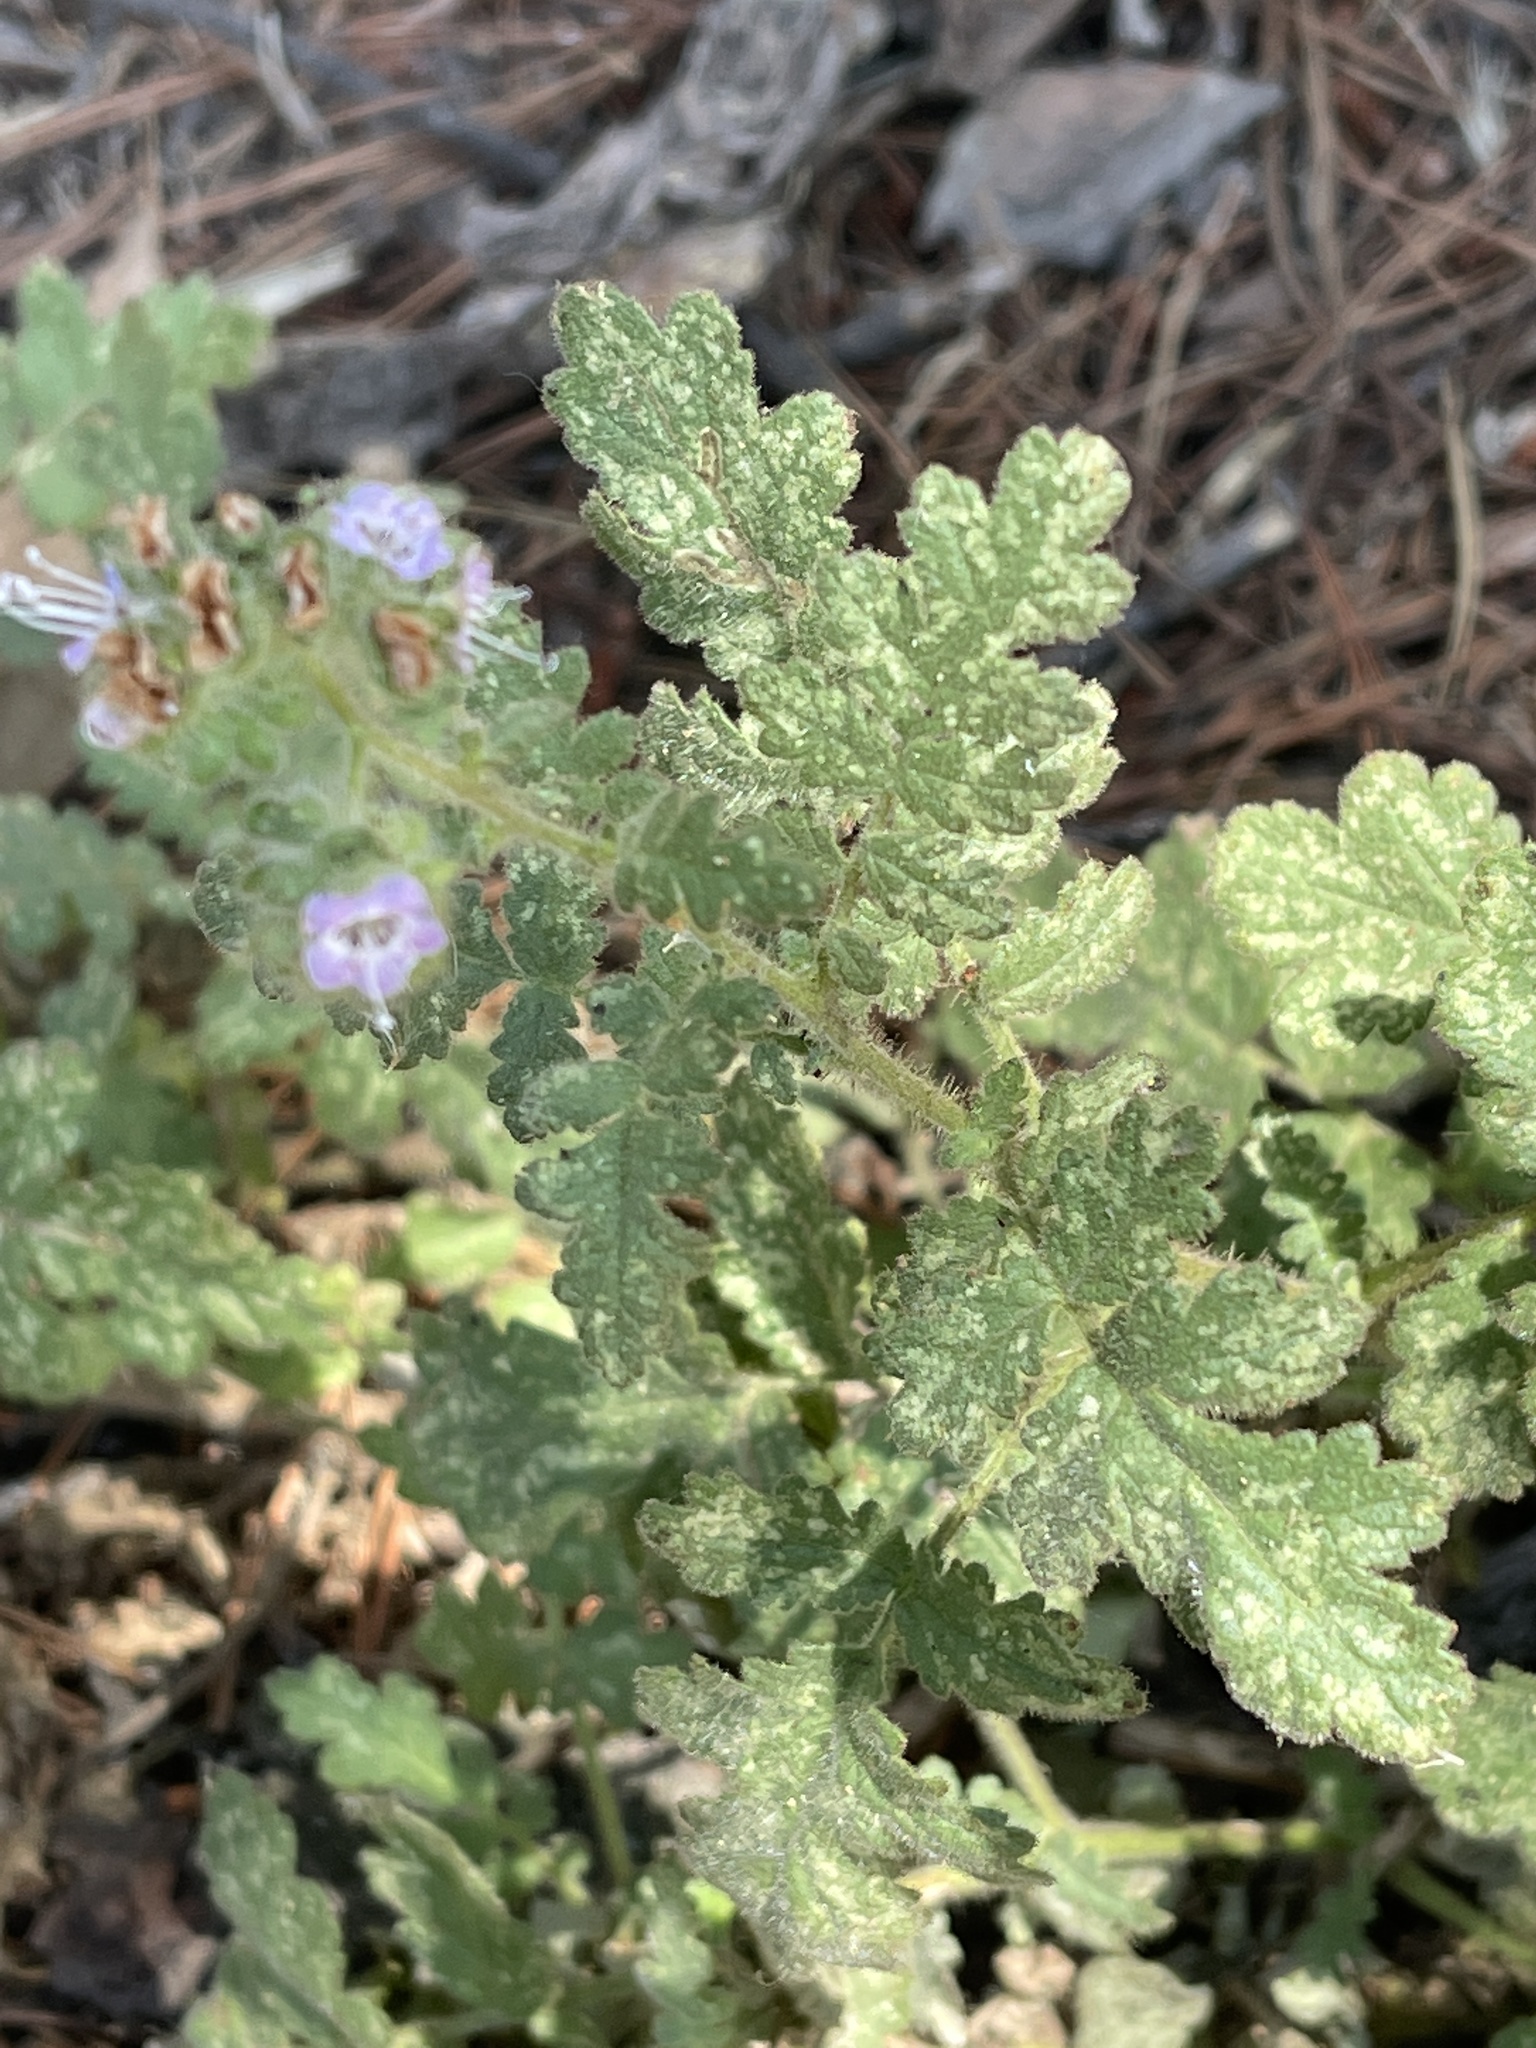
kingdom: Plantae
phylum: Tracheophyta
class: Magnoliopsida
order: Boraginales
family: Hydrophyllaceae
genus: Phacelia
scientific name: Phacelia ramosissima
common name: Branching phacelia
